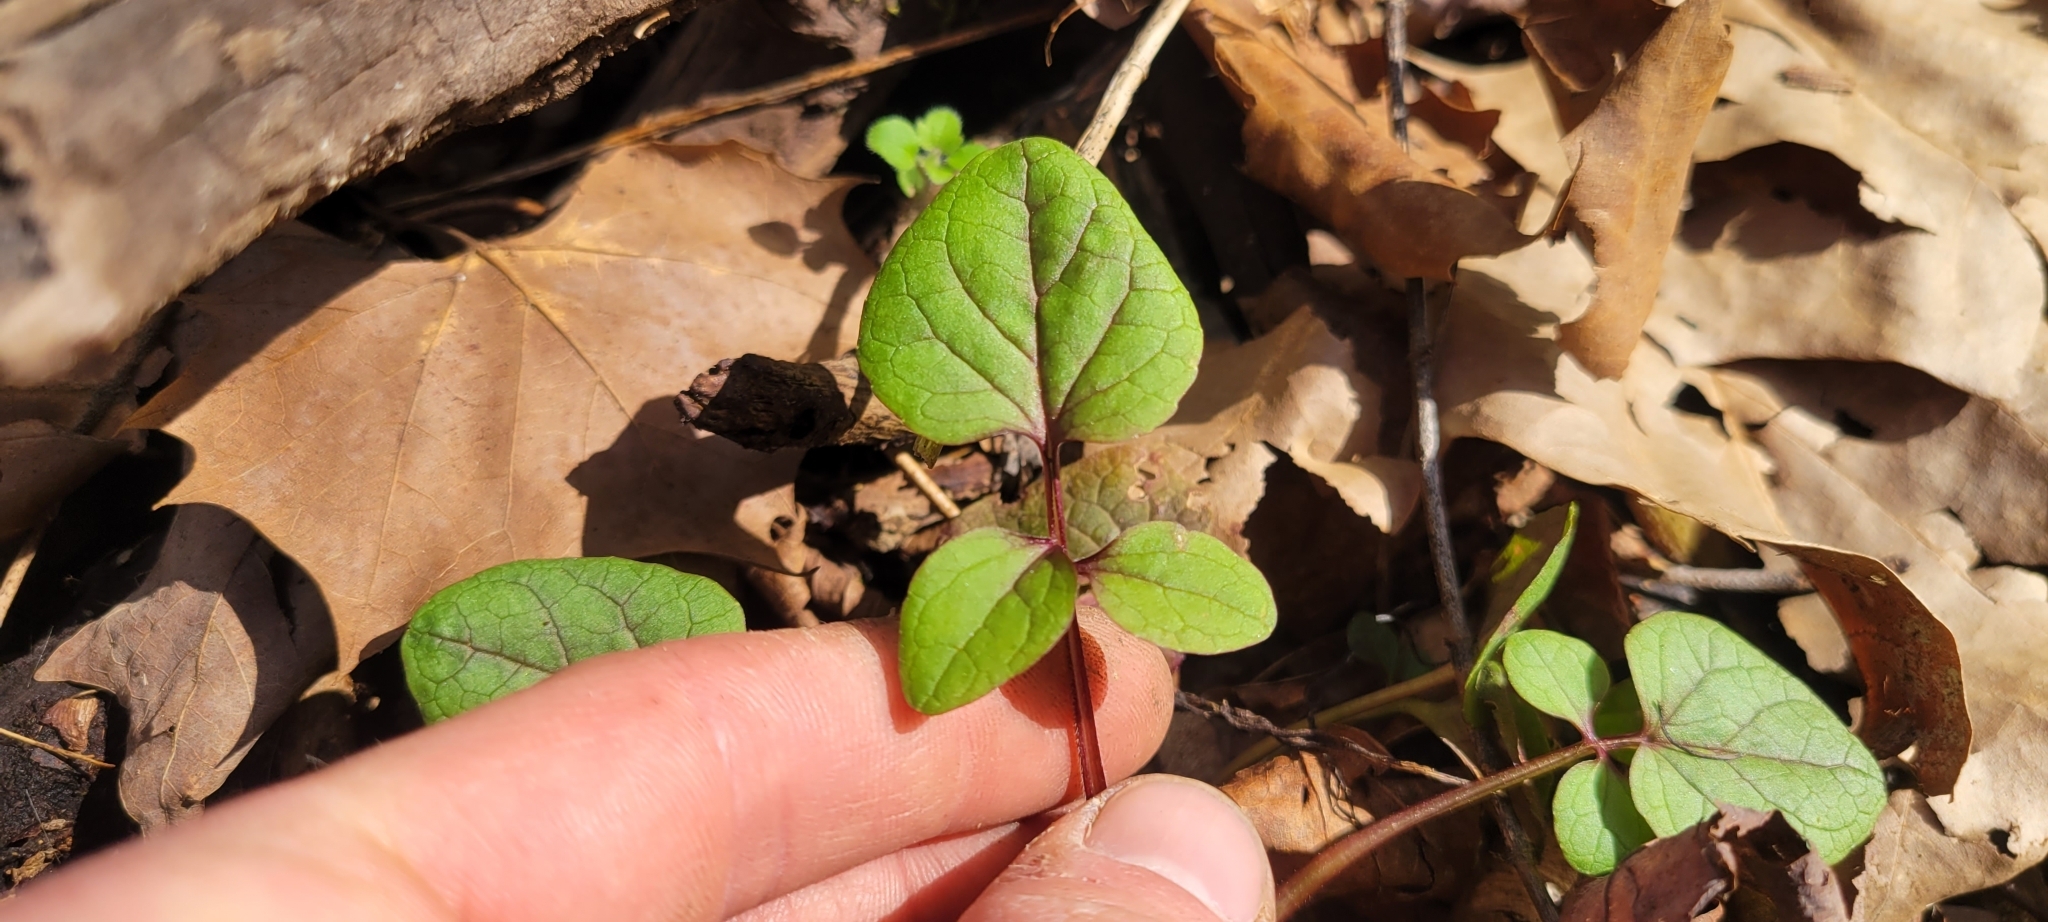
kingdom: Plantae
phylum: Tracheophyta
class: Magnoliopsida
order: Dipsacales
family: Caprifoliaceae
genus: Valeriana
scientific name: Valeriana pauciflora
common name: Long-tube valeriana
